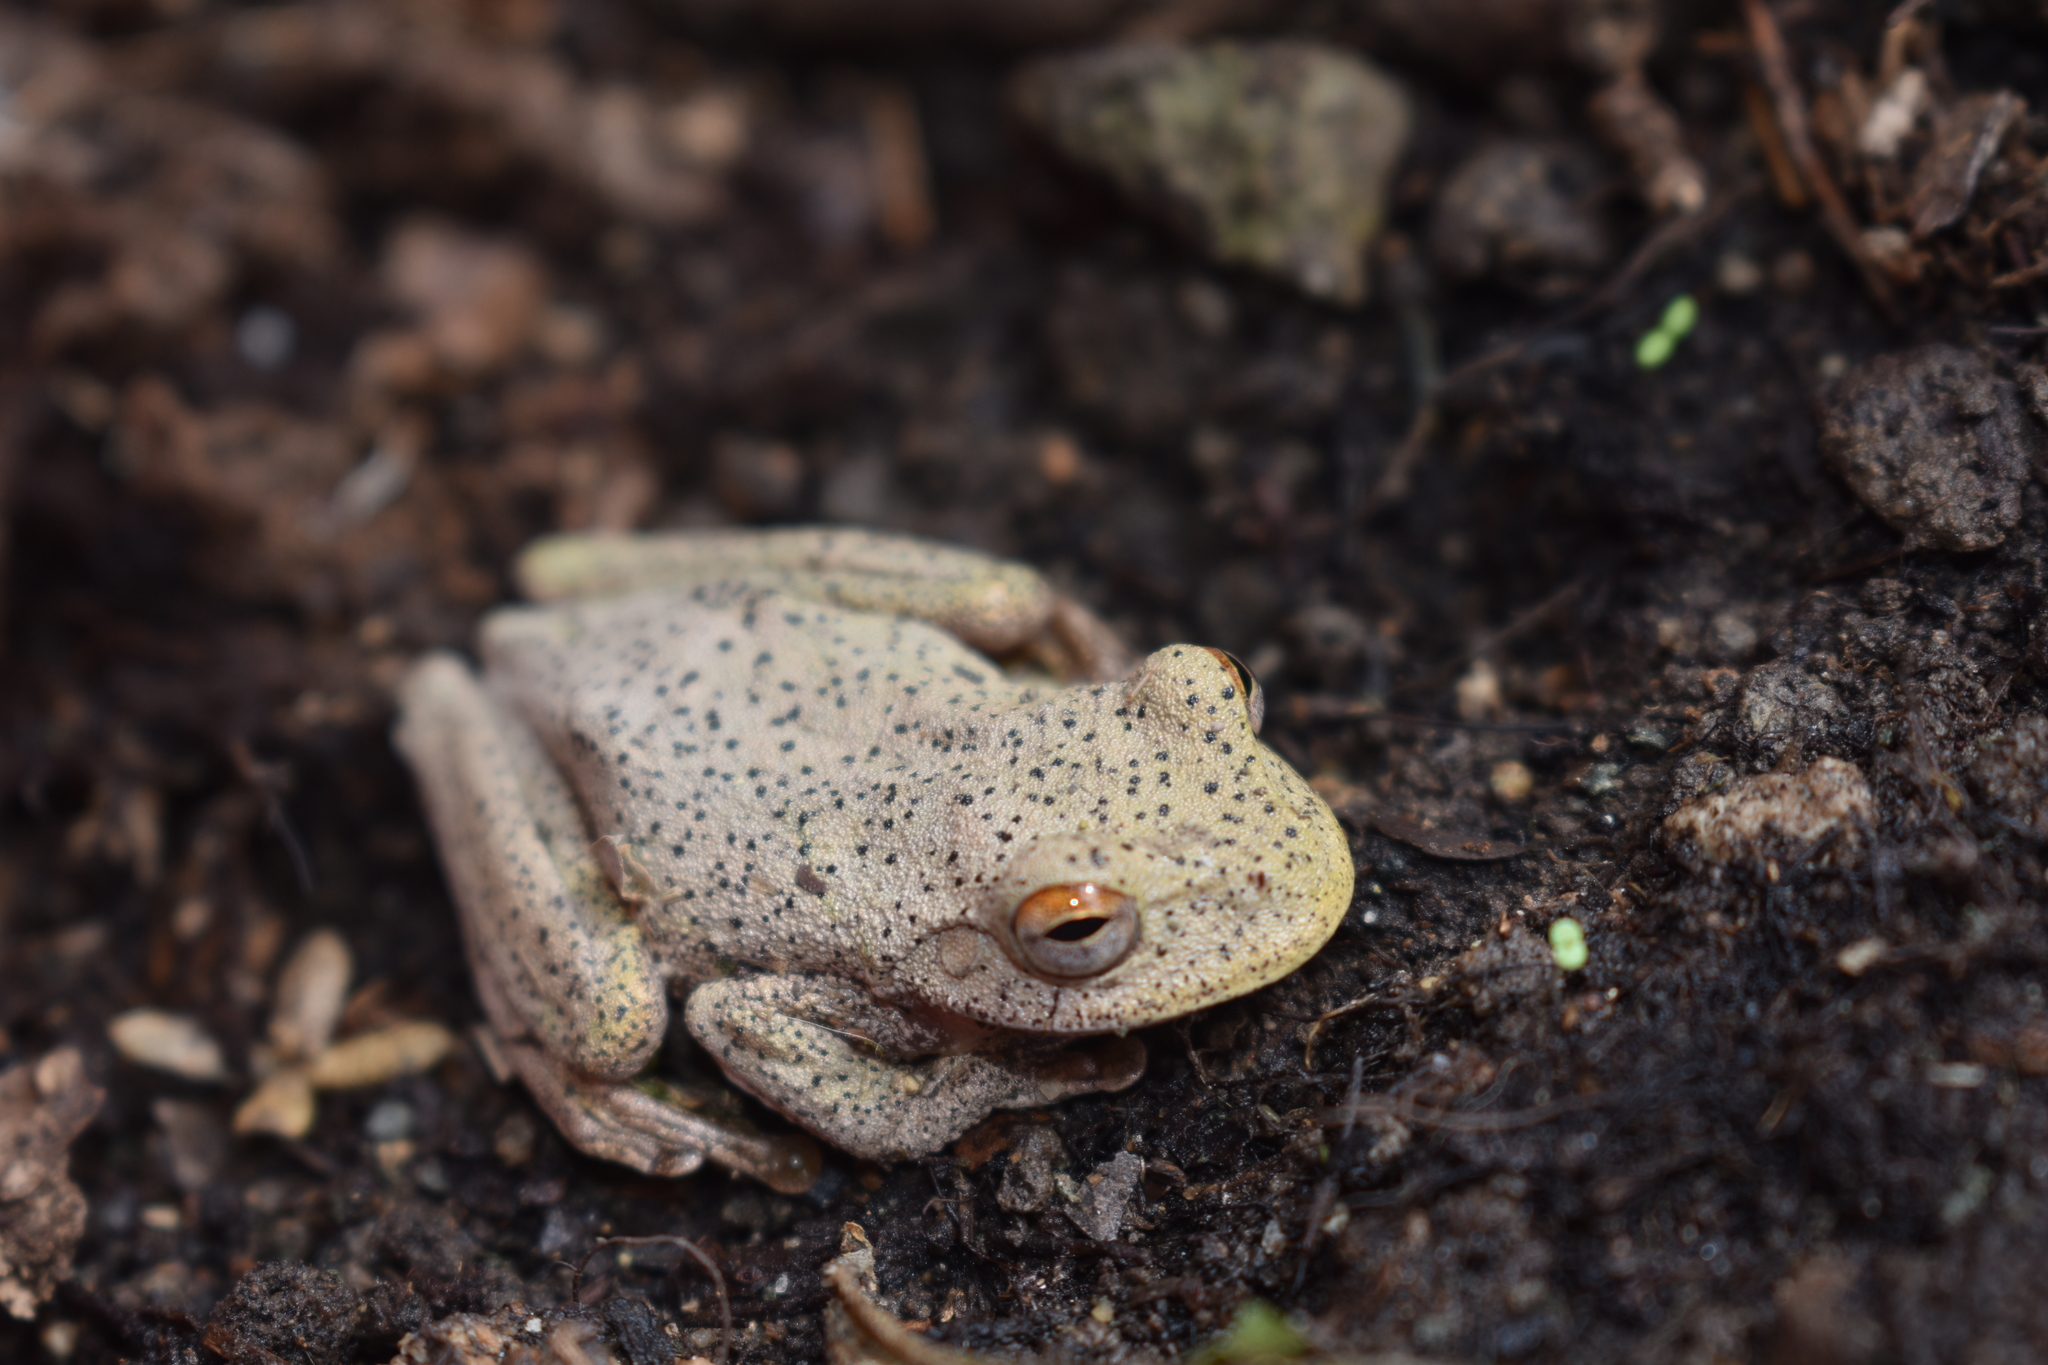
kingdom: Animalia
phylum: Chordata
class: Amphibia
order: Anura
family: Hylidae
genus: Rheohyla
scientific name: Rheohyla miotympanum
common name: Small-eard hyla
